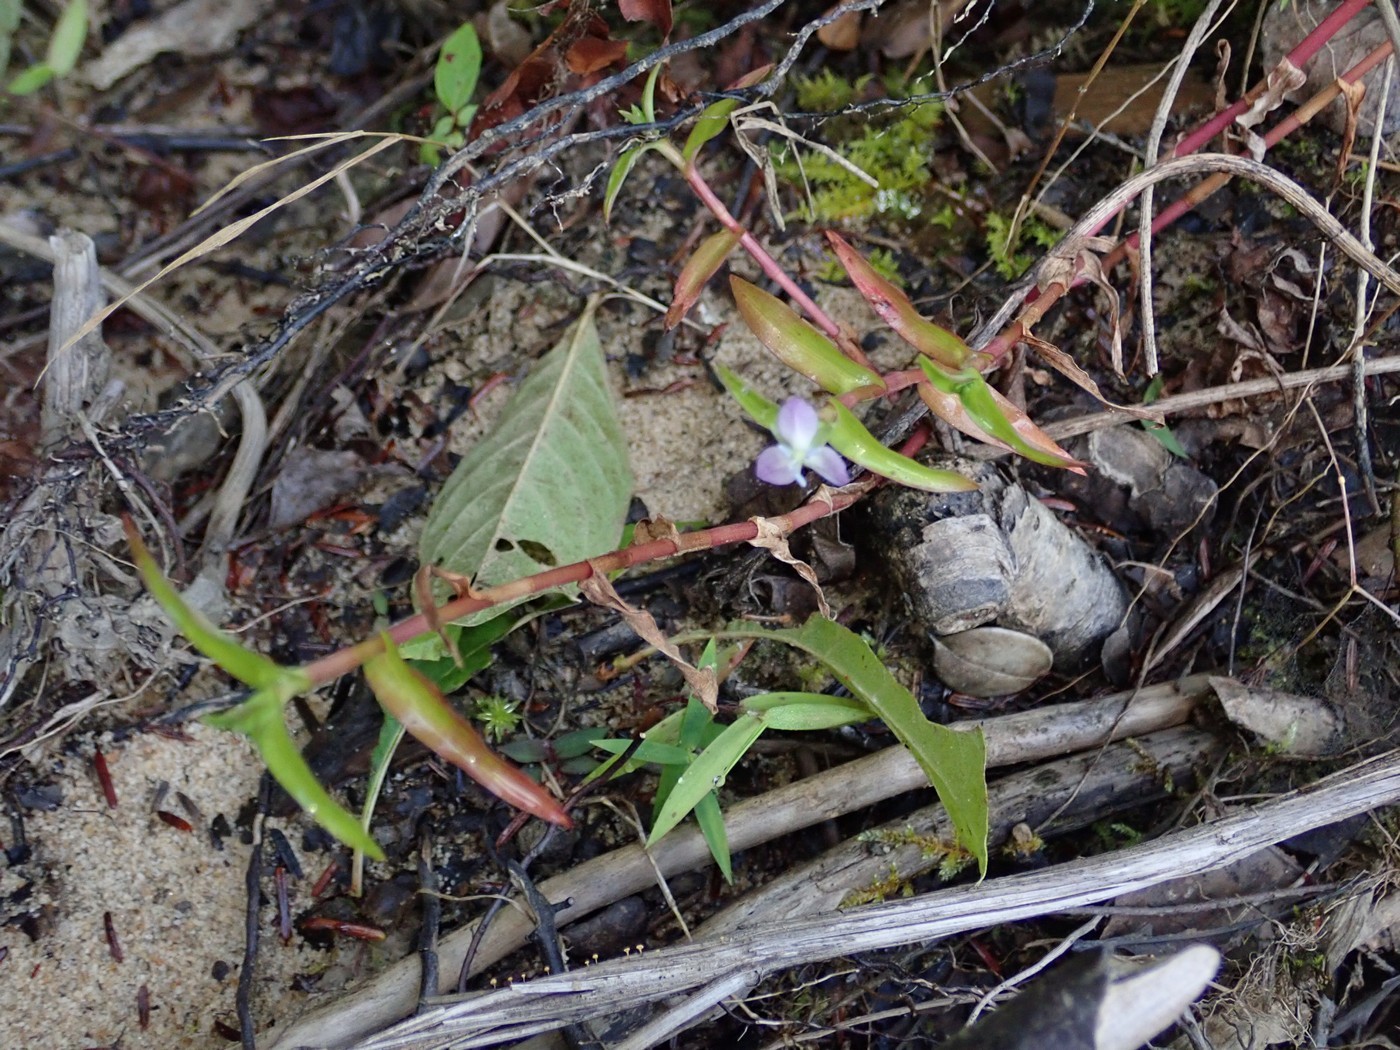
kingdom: Plantae
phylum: Tracheophyta
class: Liliopsida
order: Commelinales
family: Commelinaceae
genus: Murdannia
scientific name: Murdannia keisak
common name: Wartremoving herb
